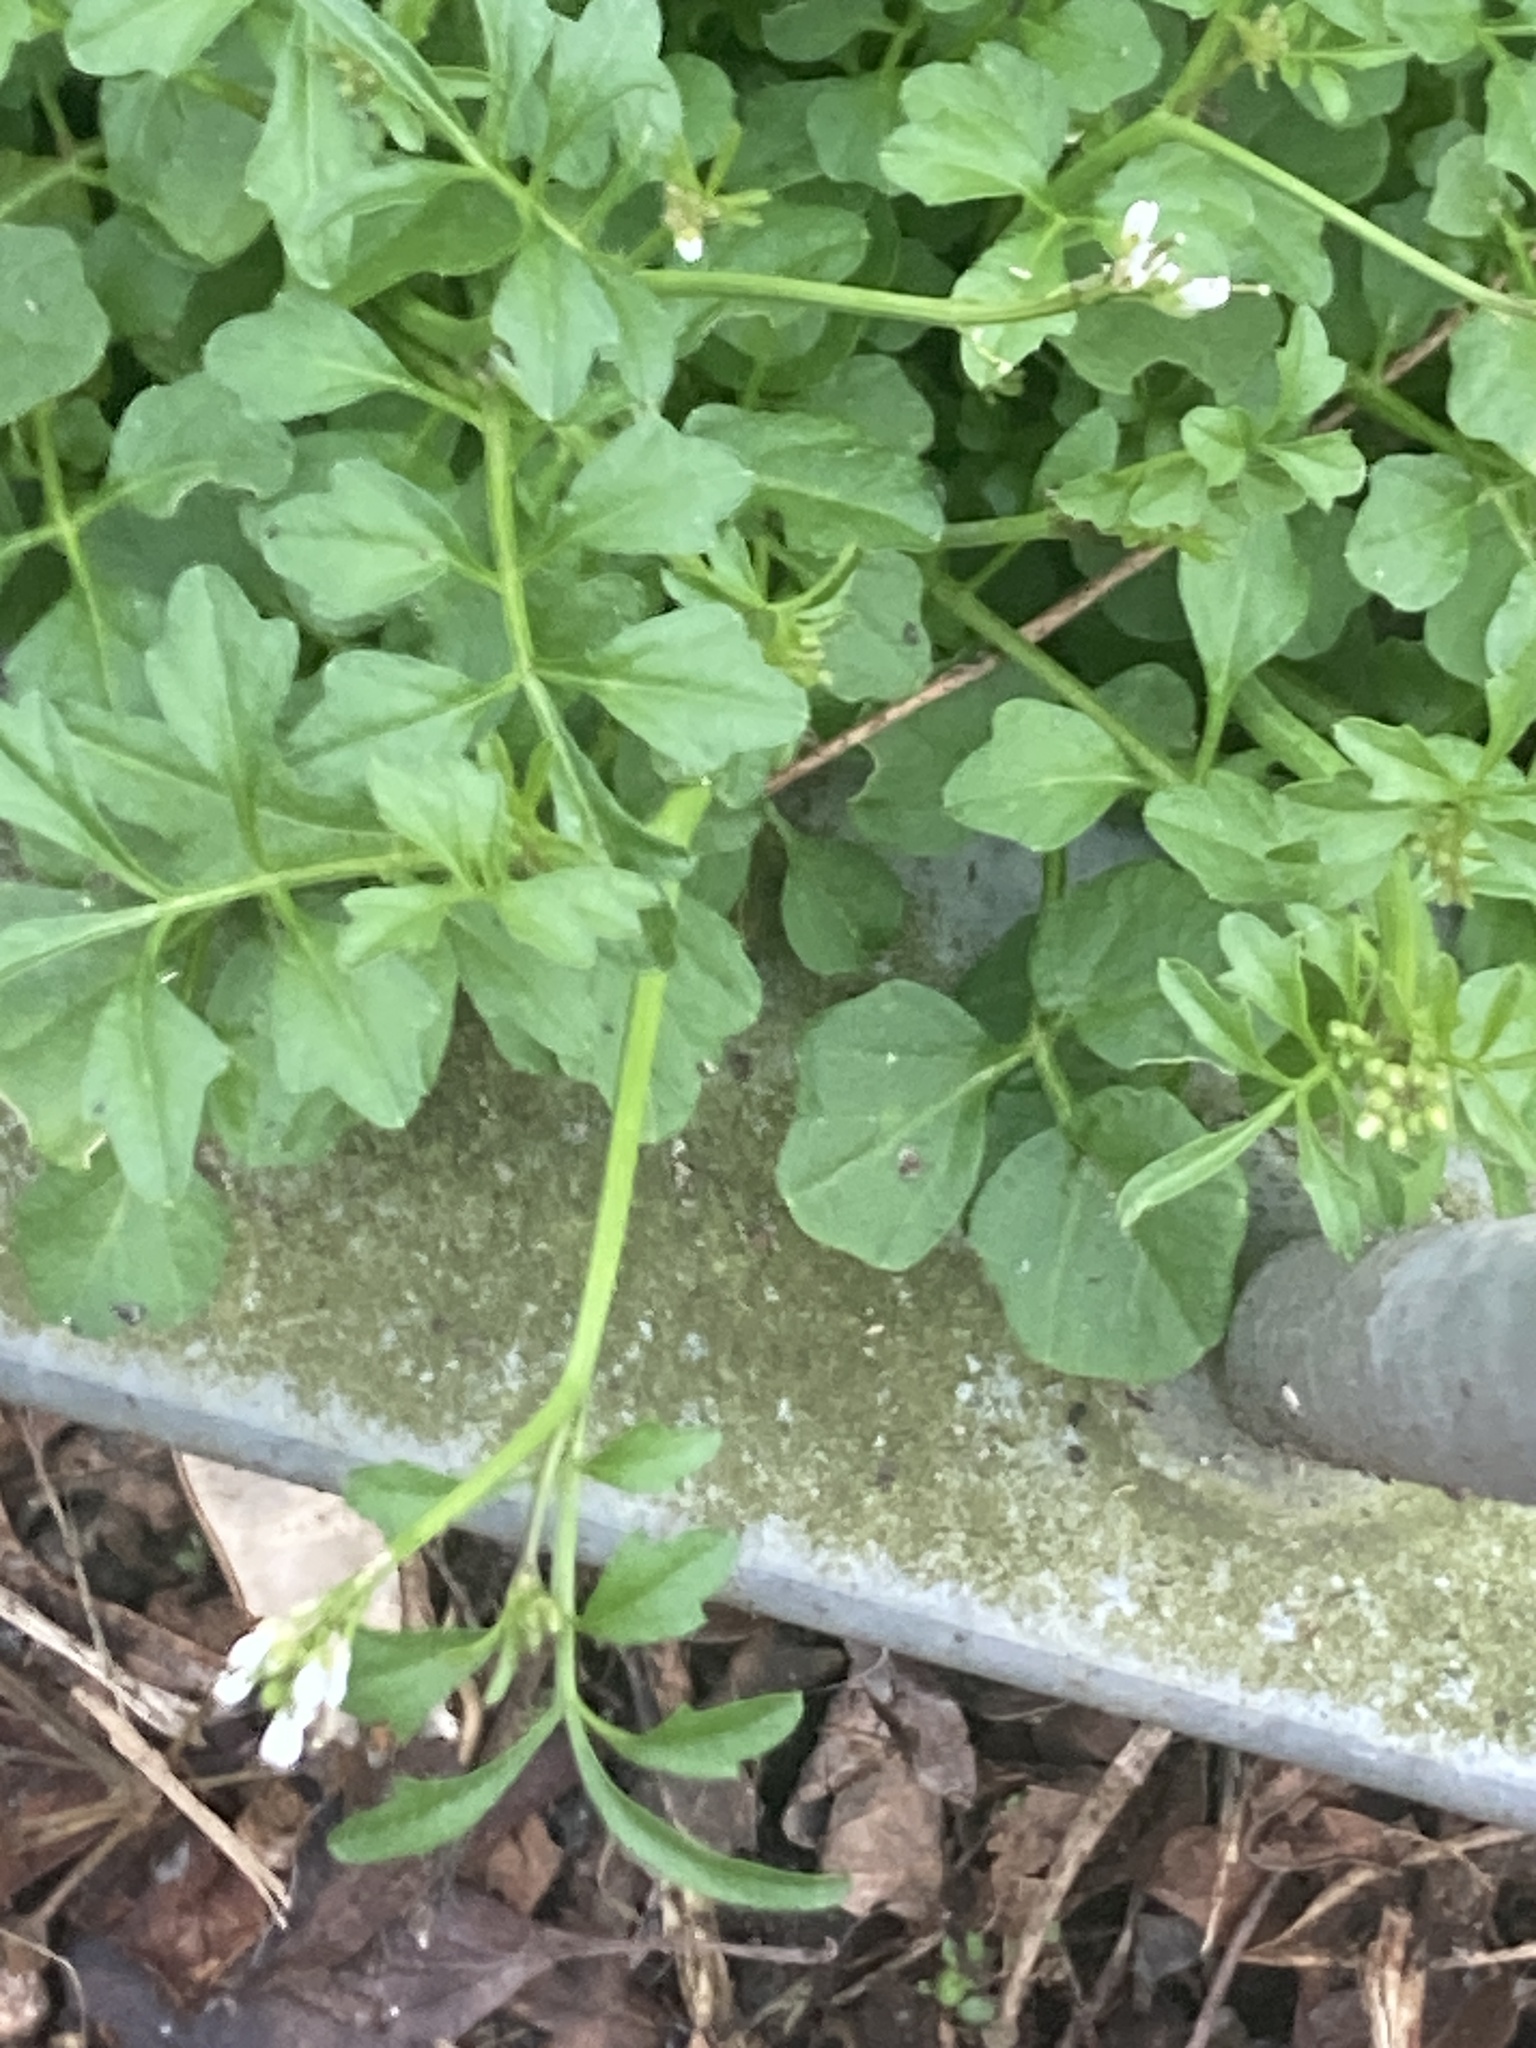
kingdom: Plantae
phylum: Tracheophyta
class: Magnoliopsida
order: Brassicales
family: Brassicaceae
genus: Cardamine
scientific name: Cardamine flexuosa
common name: Woodland bittercress
